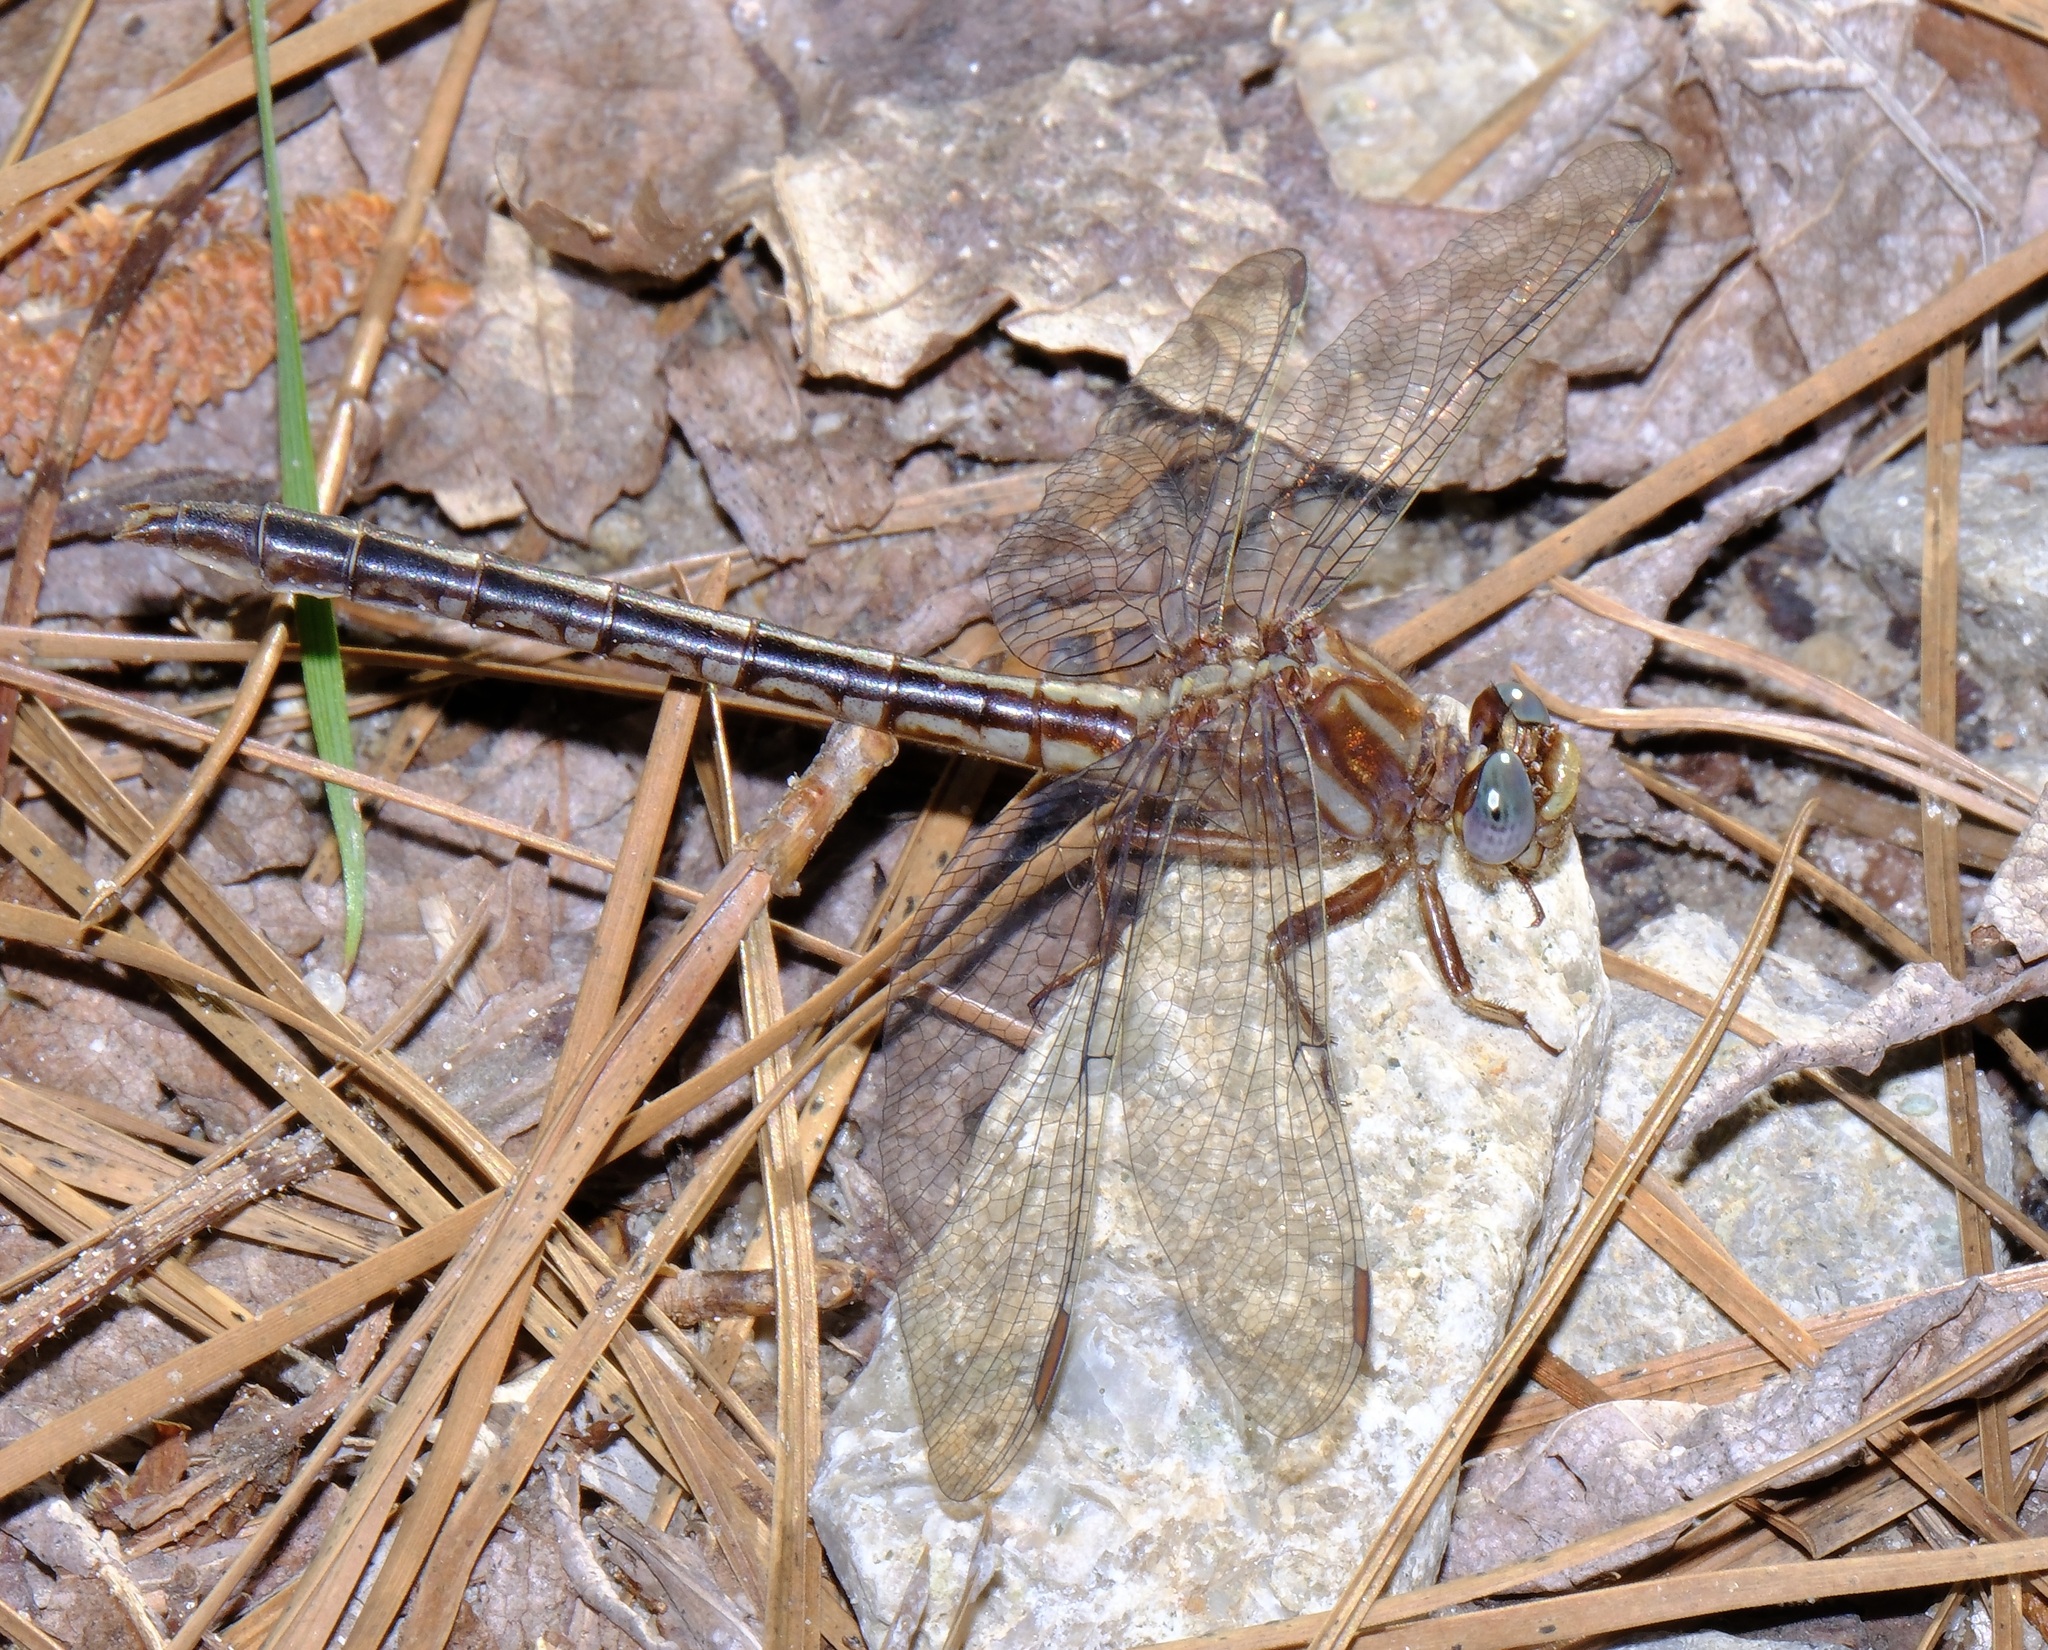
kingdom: Animalia
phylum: Arthropoda
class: Insecta
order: Odonata
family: Gomphidae
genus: Phanogomphus
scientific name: Phanogomphus lividus
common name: Ashy clubtail
